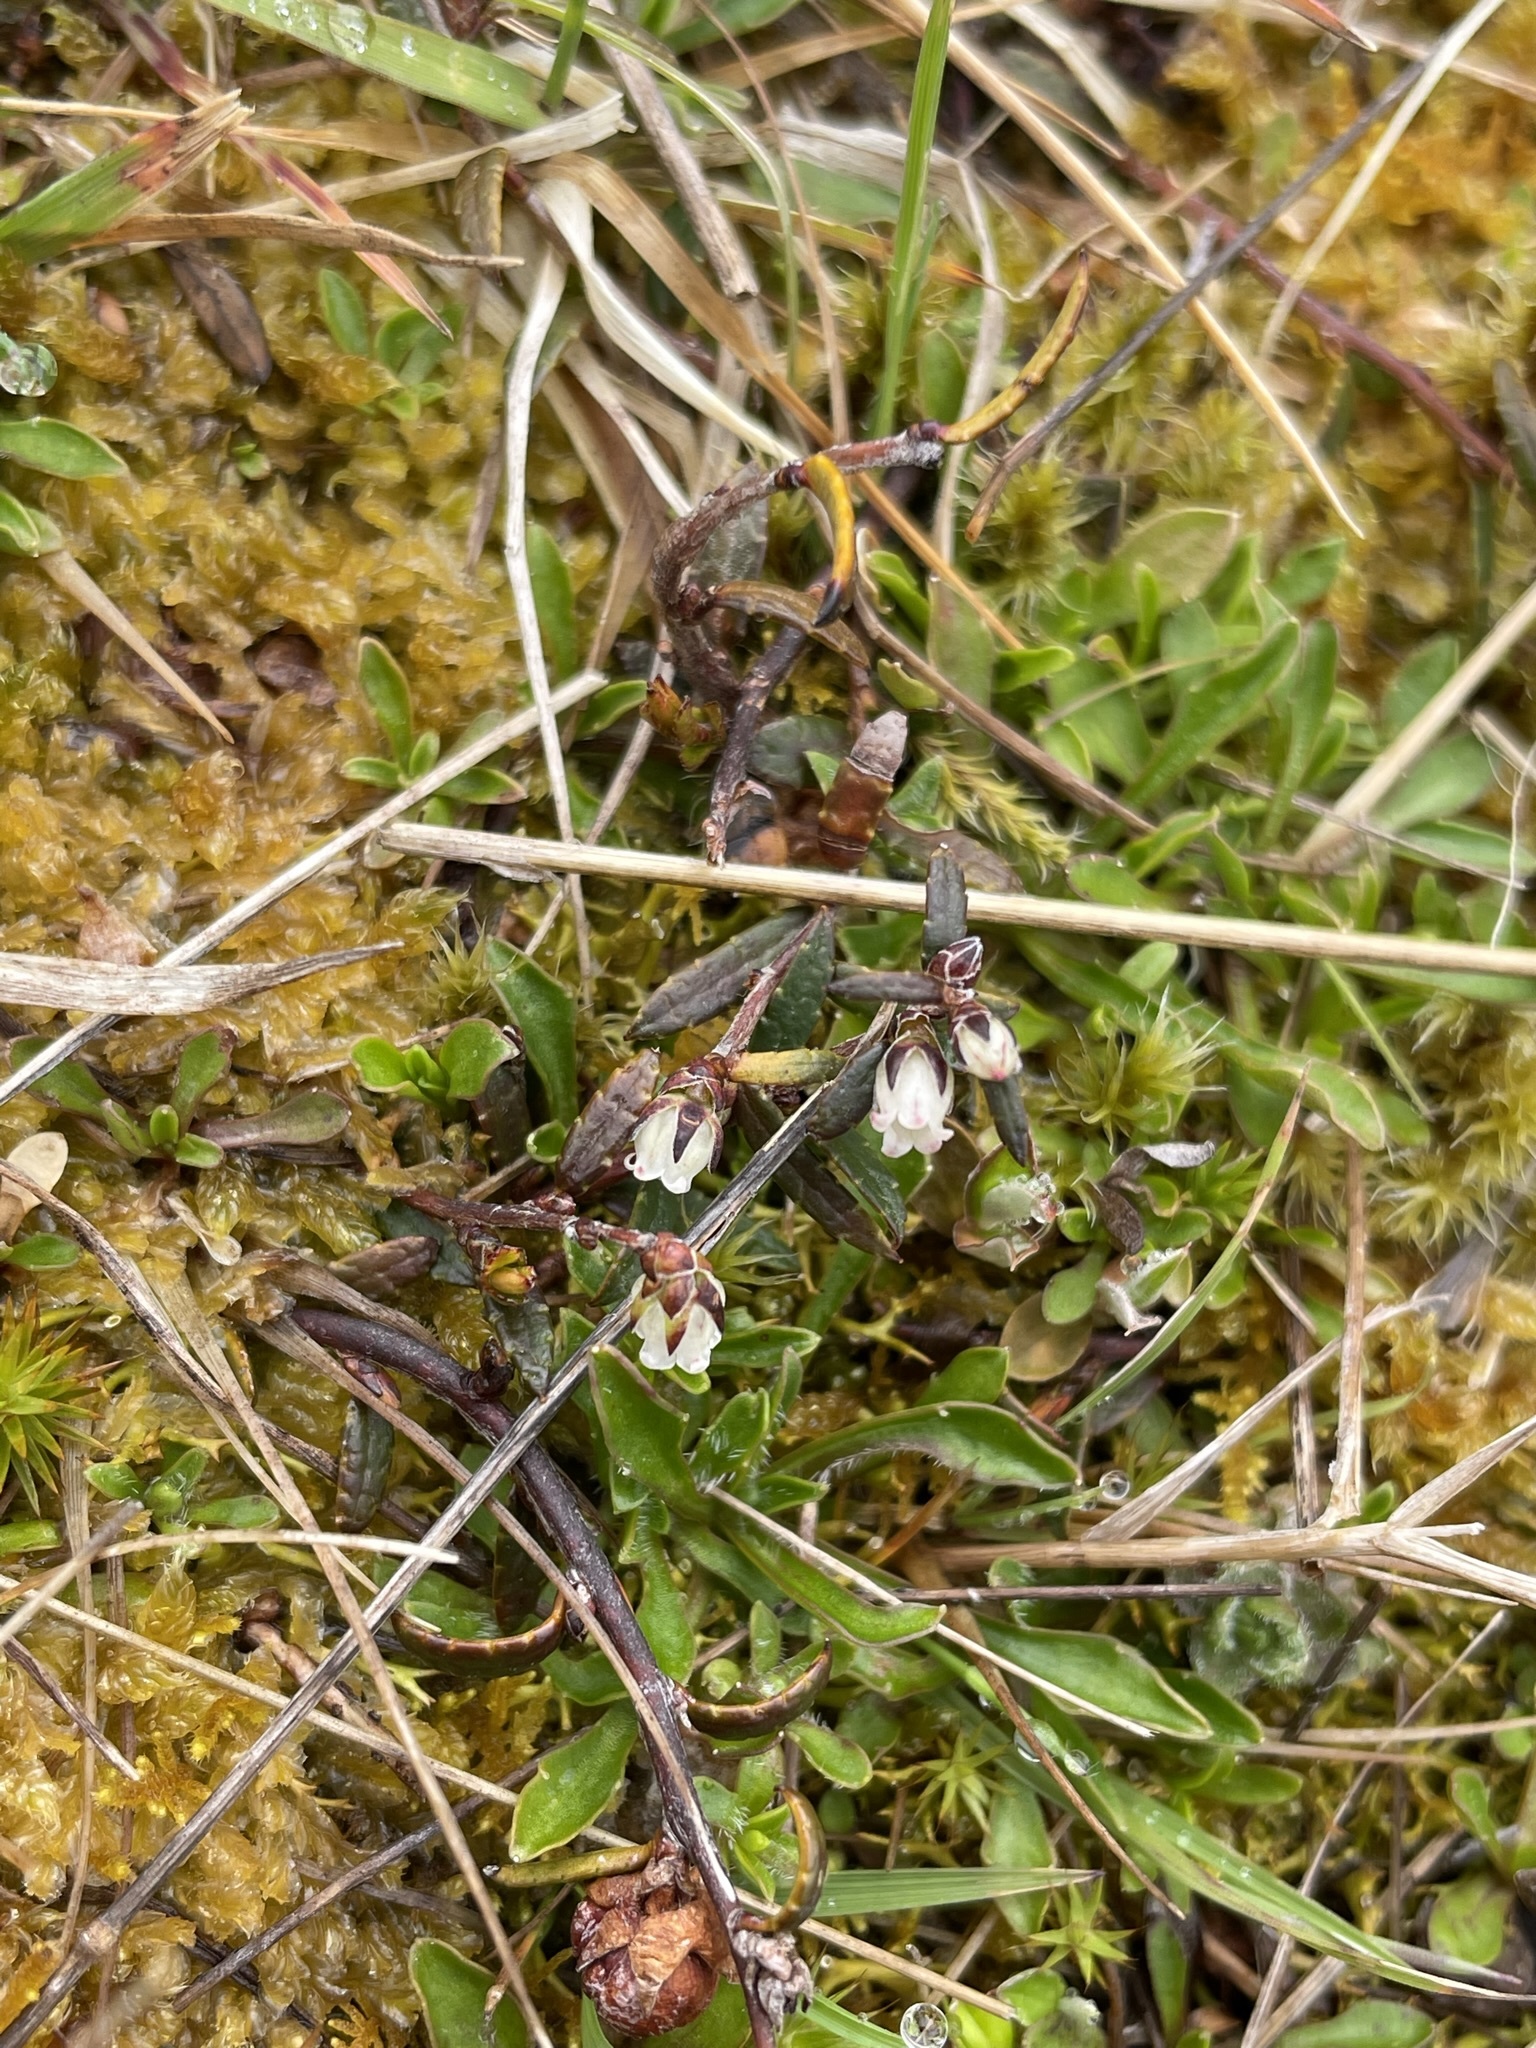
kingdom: Plantae
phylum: Tracheophyta
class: Magnoliopsida
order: Ericales
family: Ericaceae
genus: Gaultheria
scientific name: Gaultheria macrostigma
